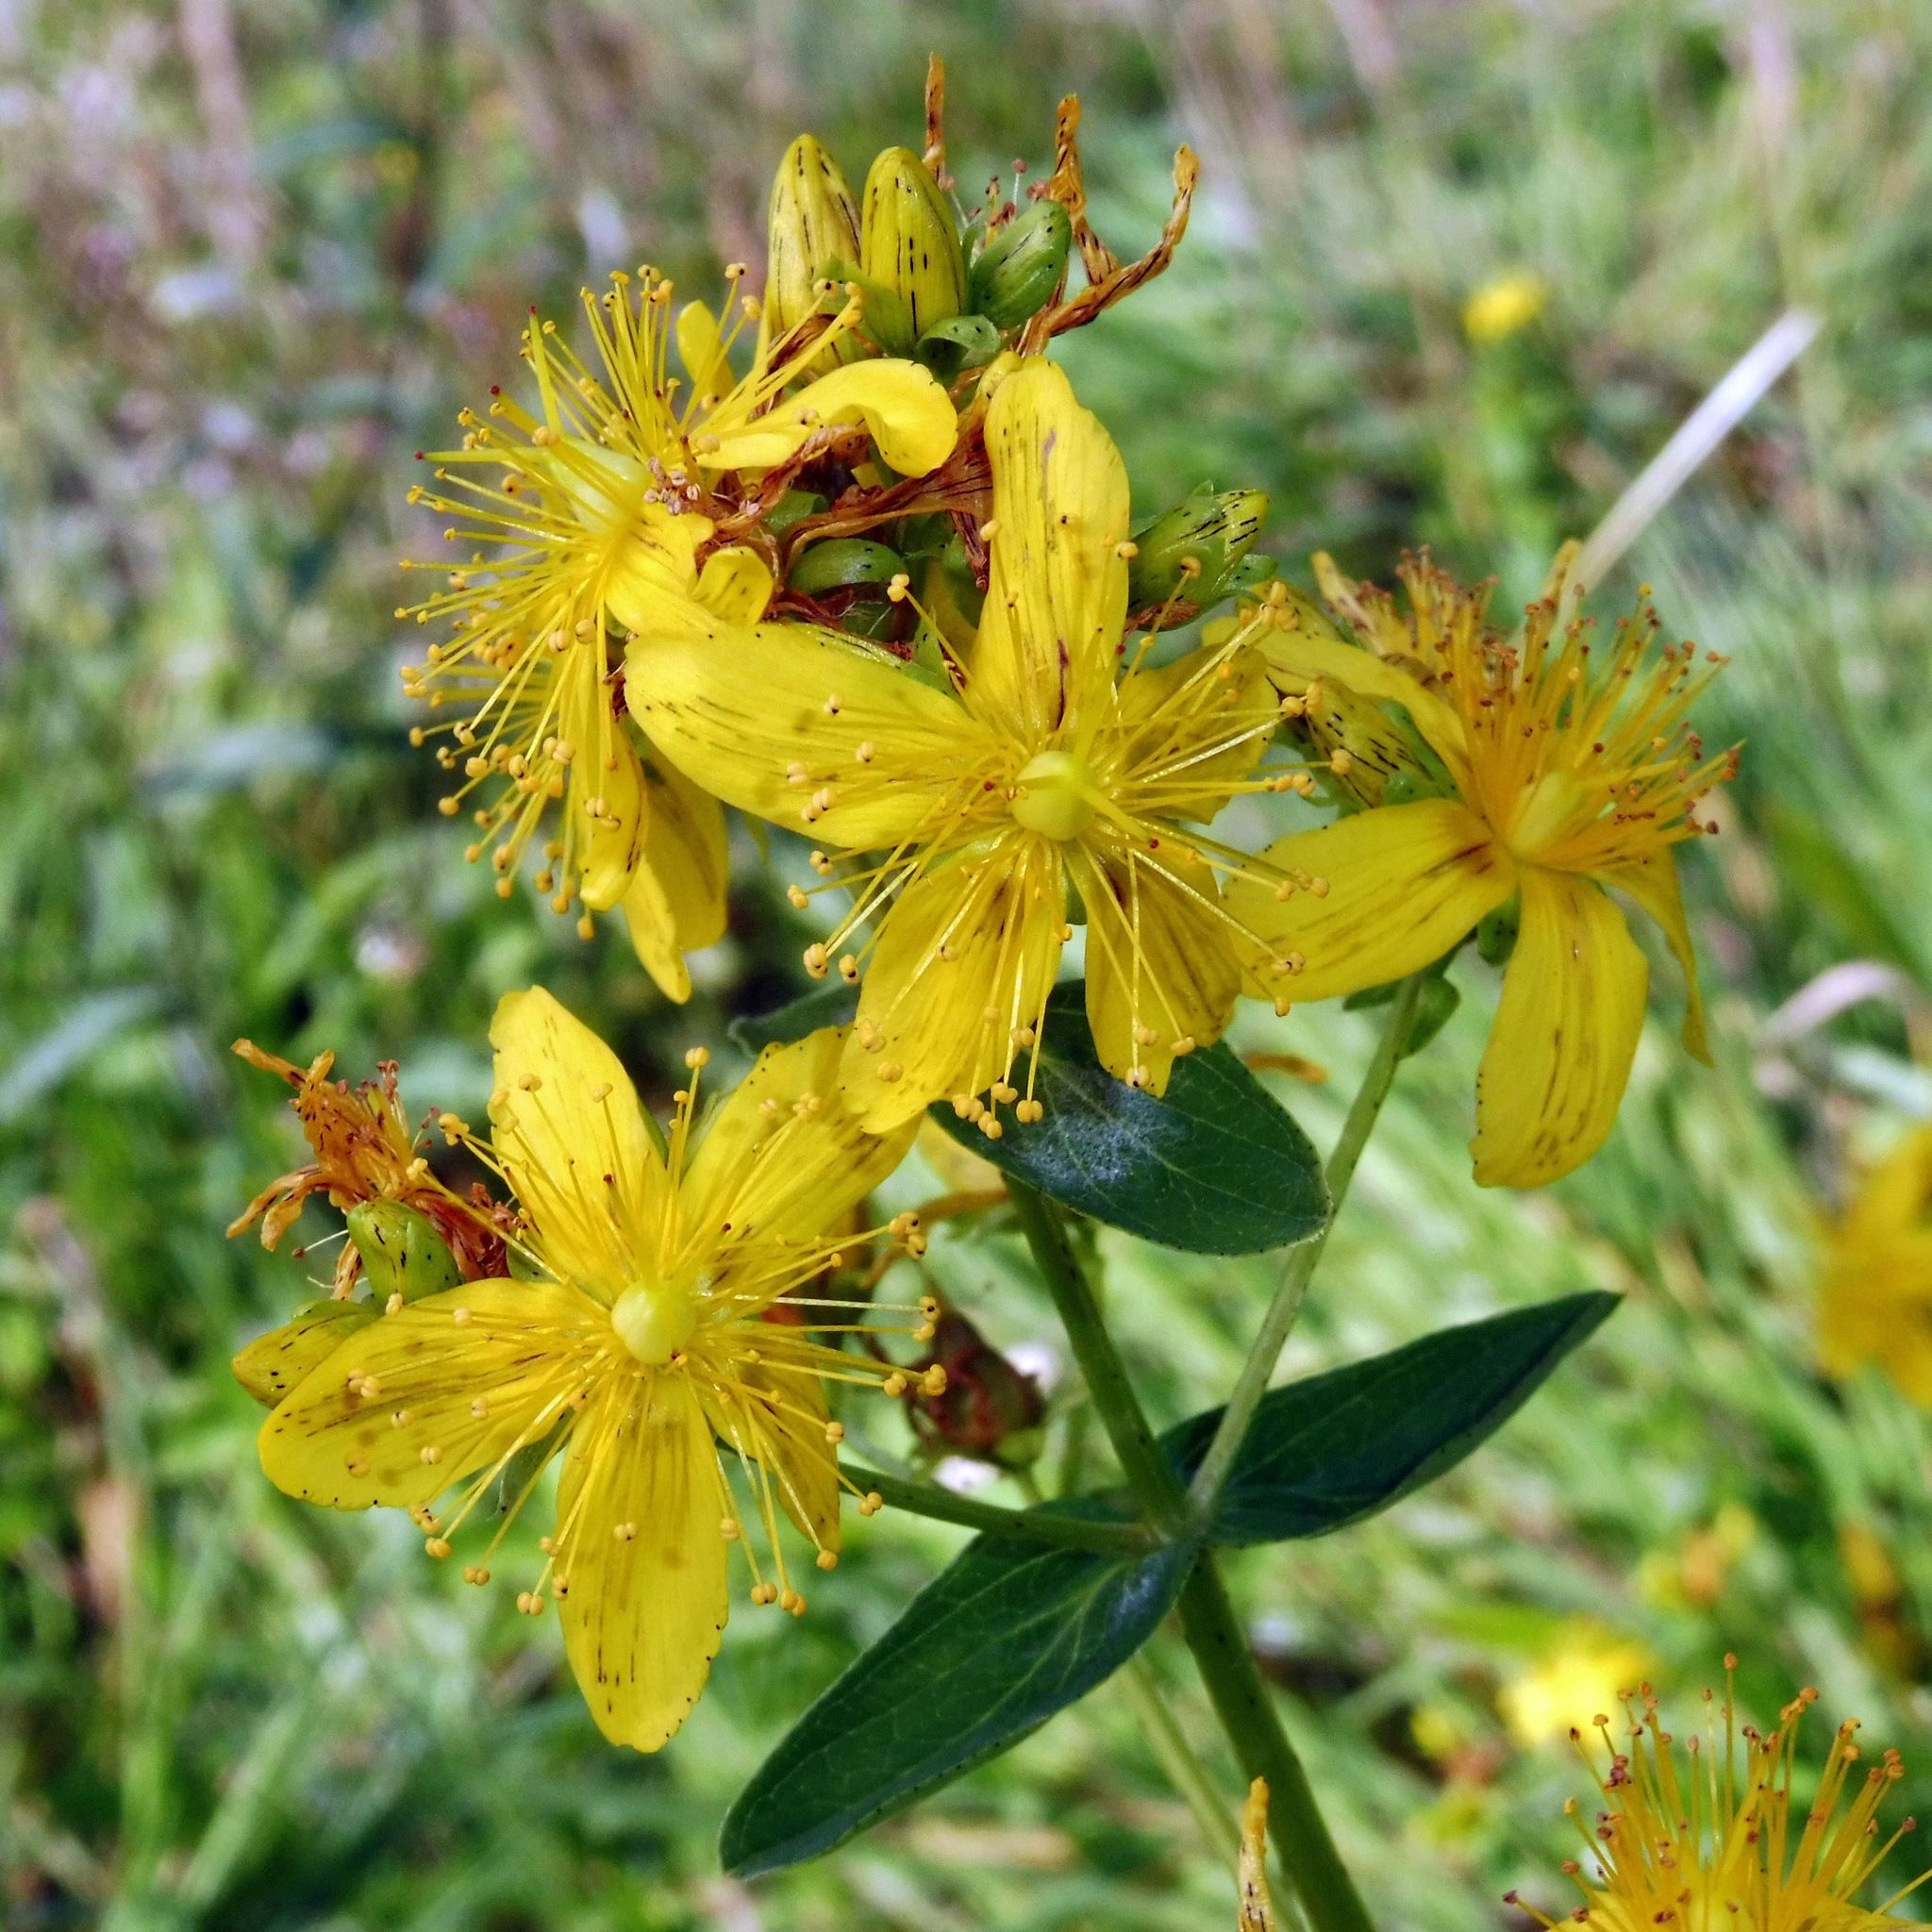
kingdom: Plantae
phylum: Tracheophyta
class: Magnoliopsida
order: Malpighiales
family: Hypericaceae
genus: Hypericum
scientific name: Hypericum maculatum
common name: Imperforate st. john's-wort
